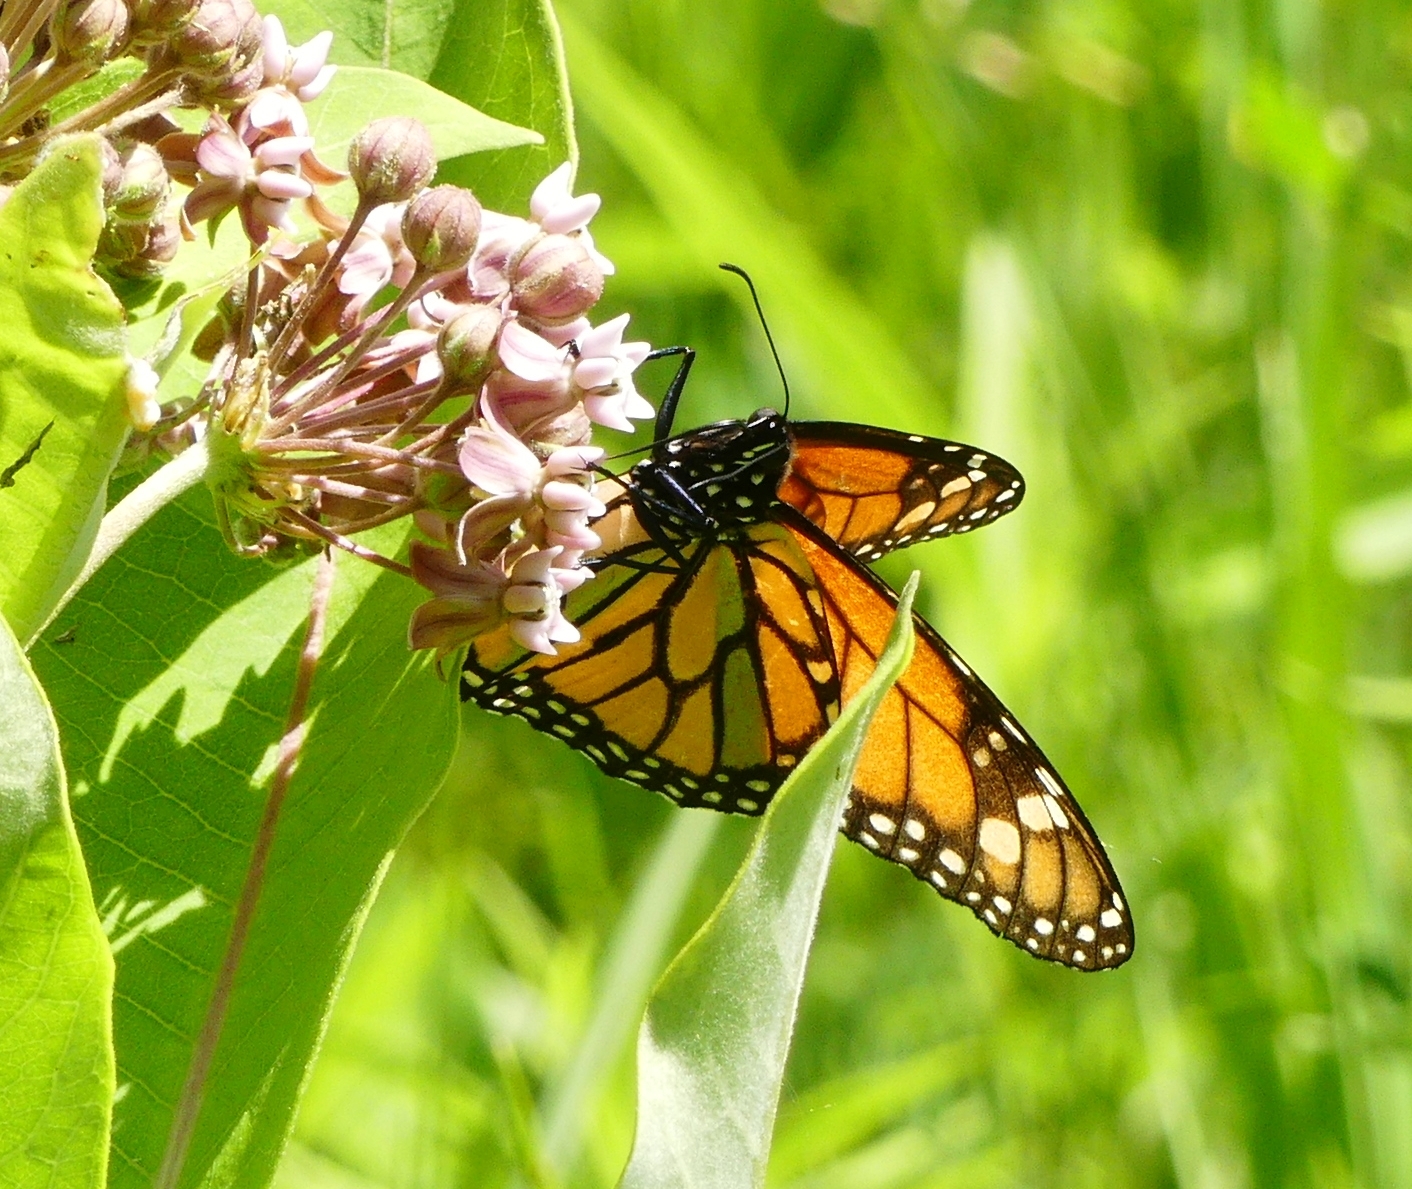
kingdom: Animalia
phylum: Arthropoda
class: Insecta
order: Lepidoptera
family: Nymphalidae
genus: Danaus
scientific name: Danaus plexippus
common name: Monarch
